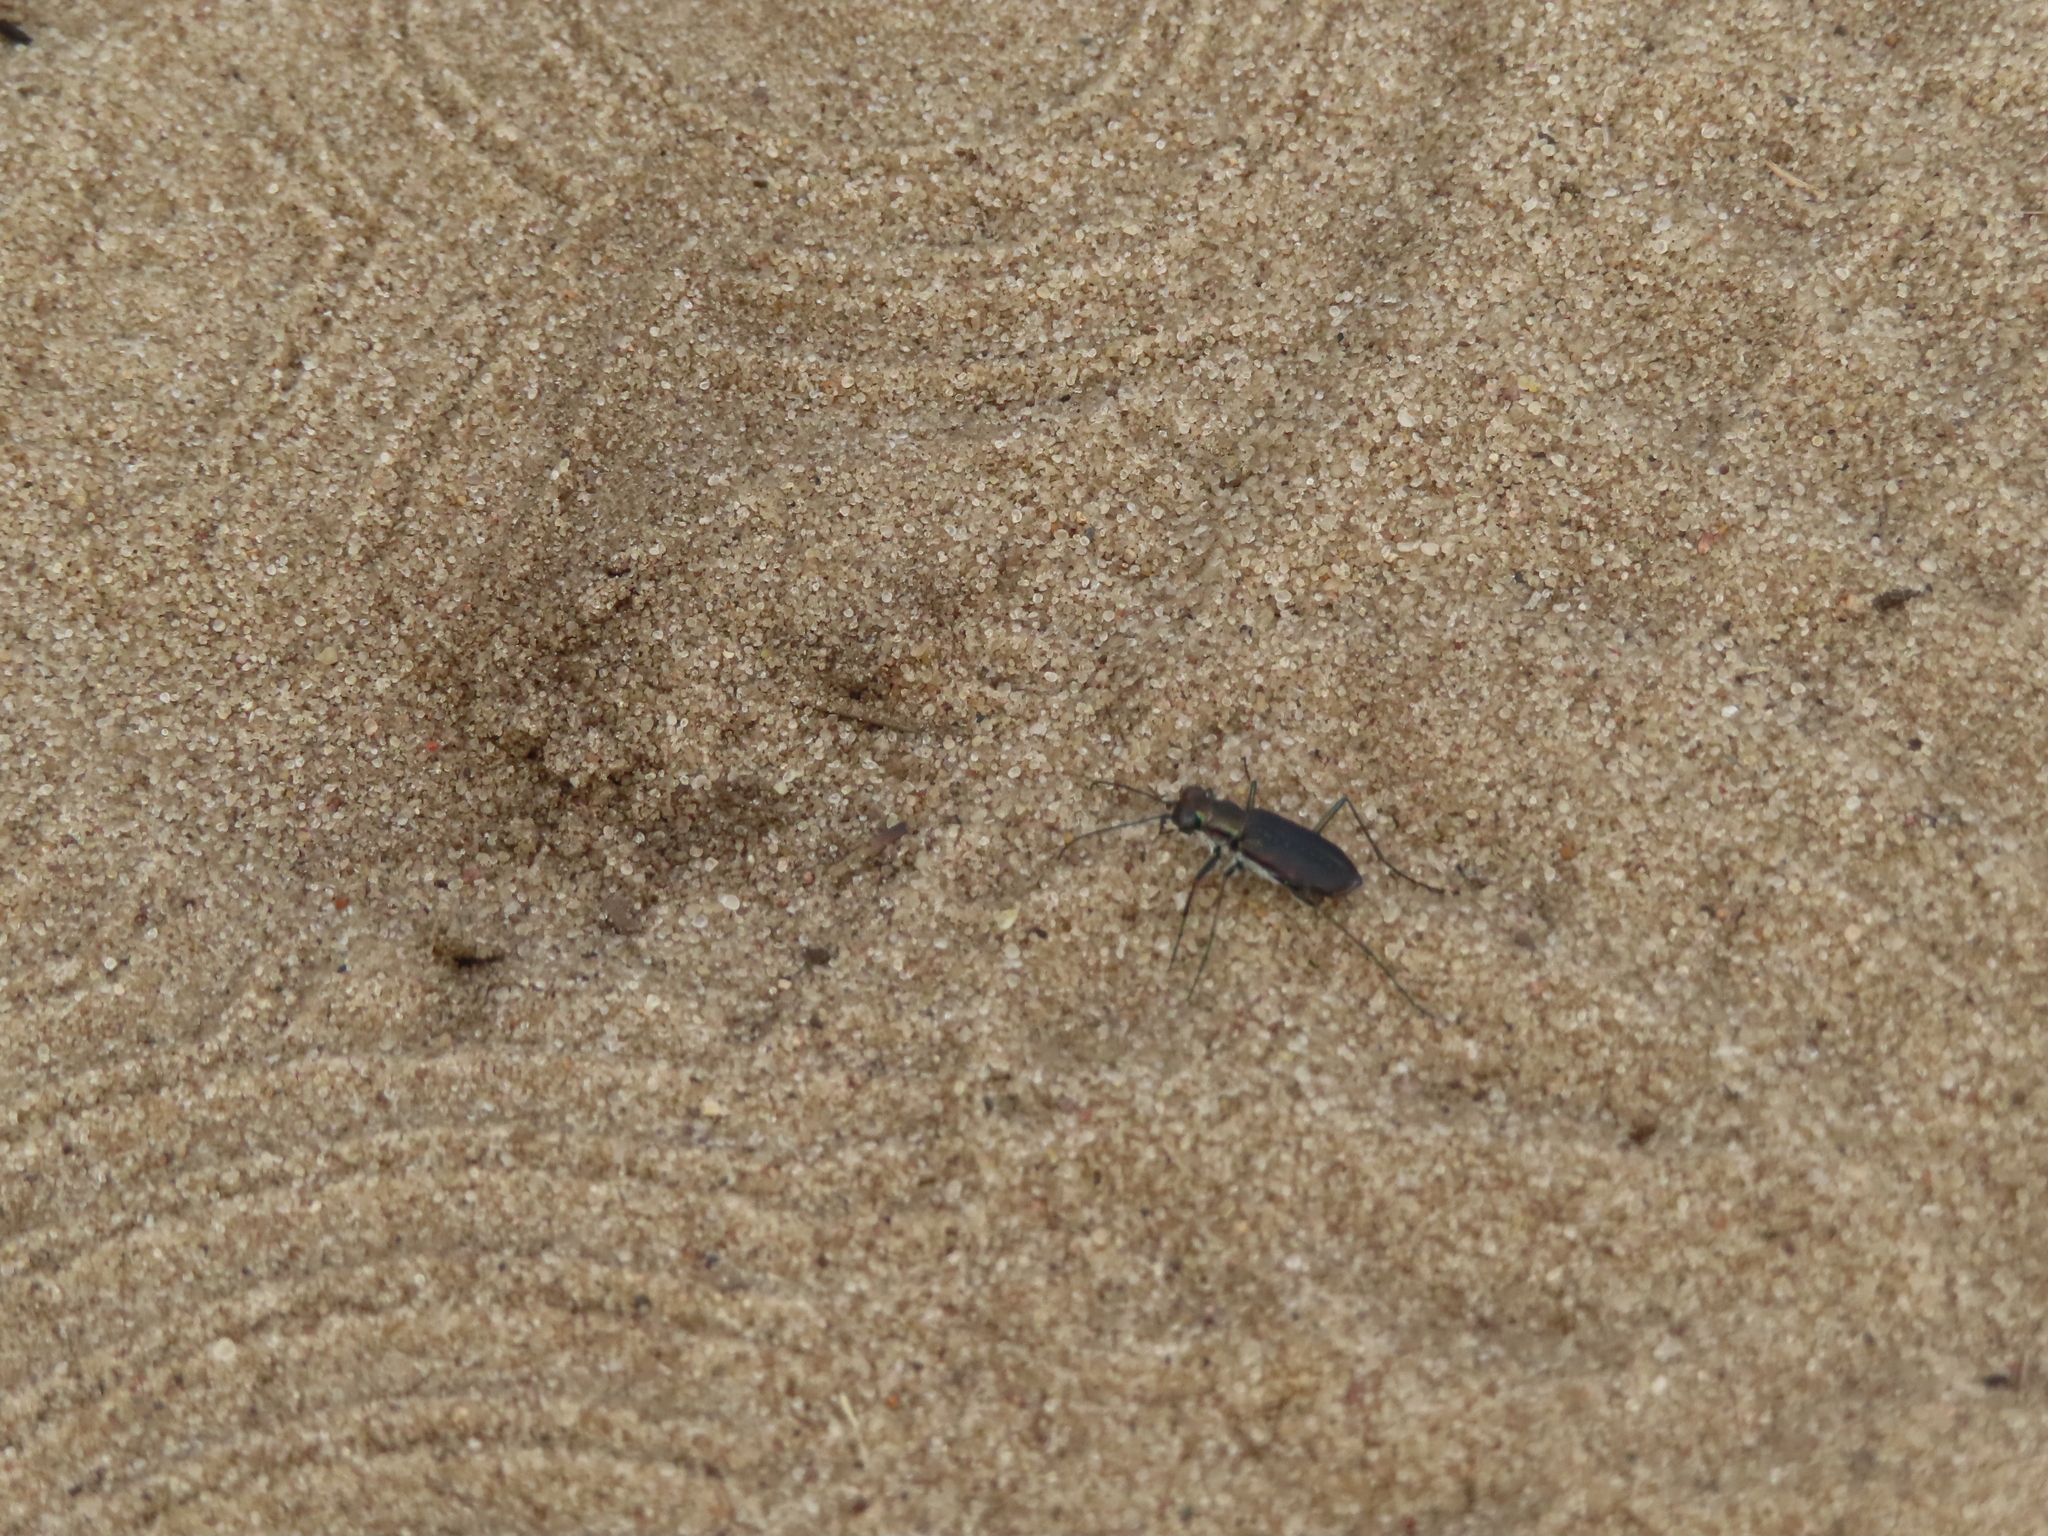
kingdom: Animalia
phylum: Arthropoda
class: Insecta
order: Coleoptera
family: Carabidae
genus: Cicindela
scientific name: Cicindela punctulata
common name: Punctured tiger beetle
